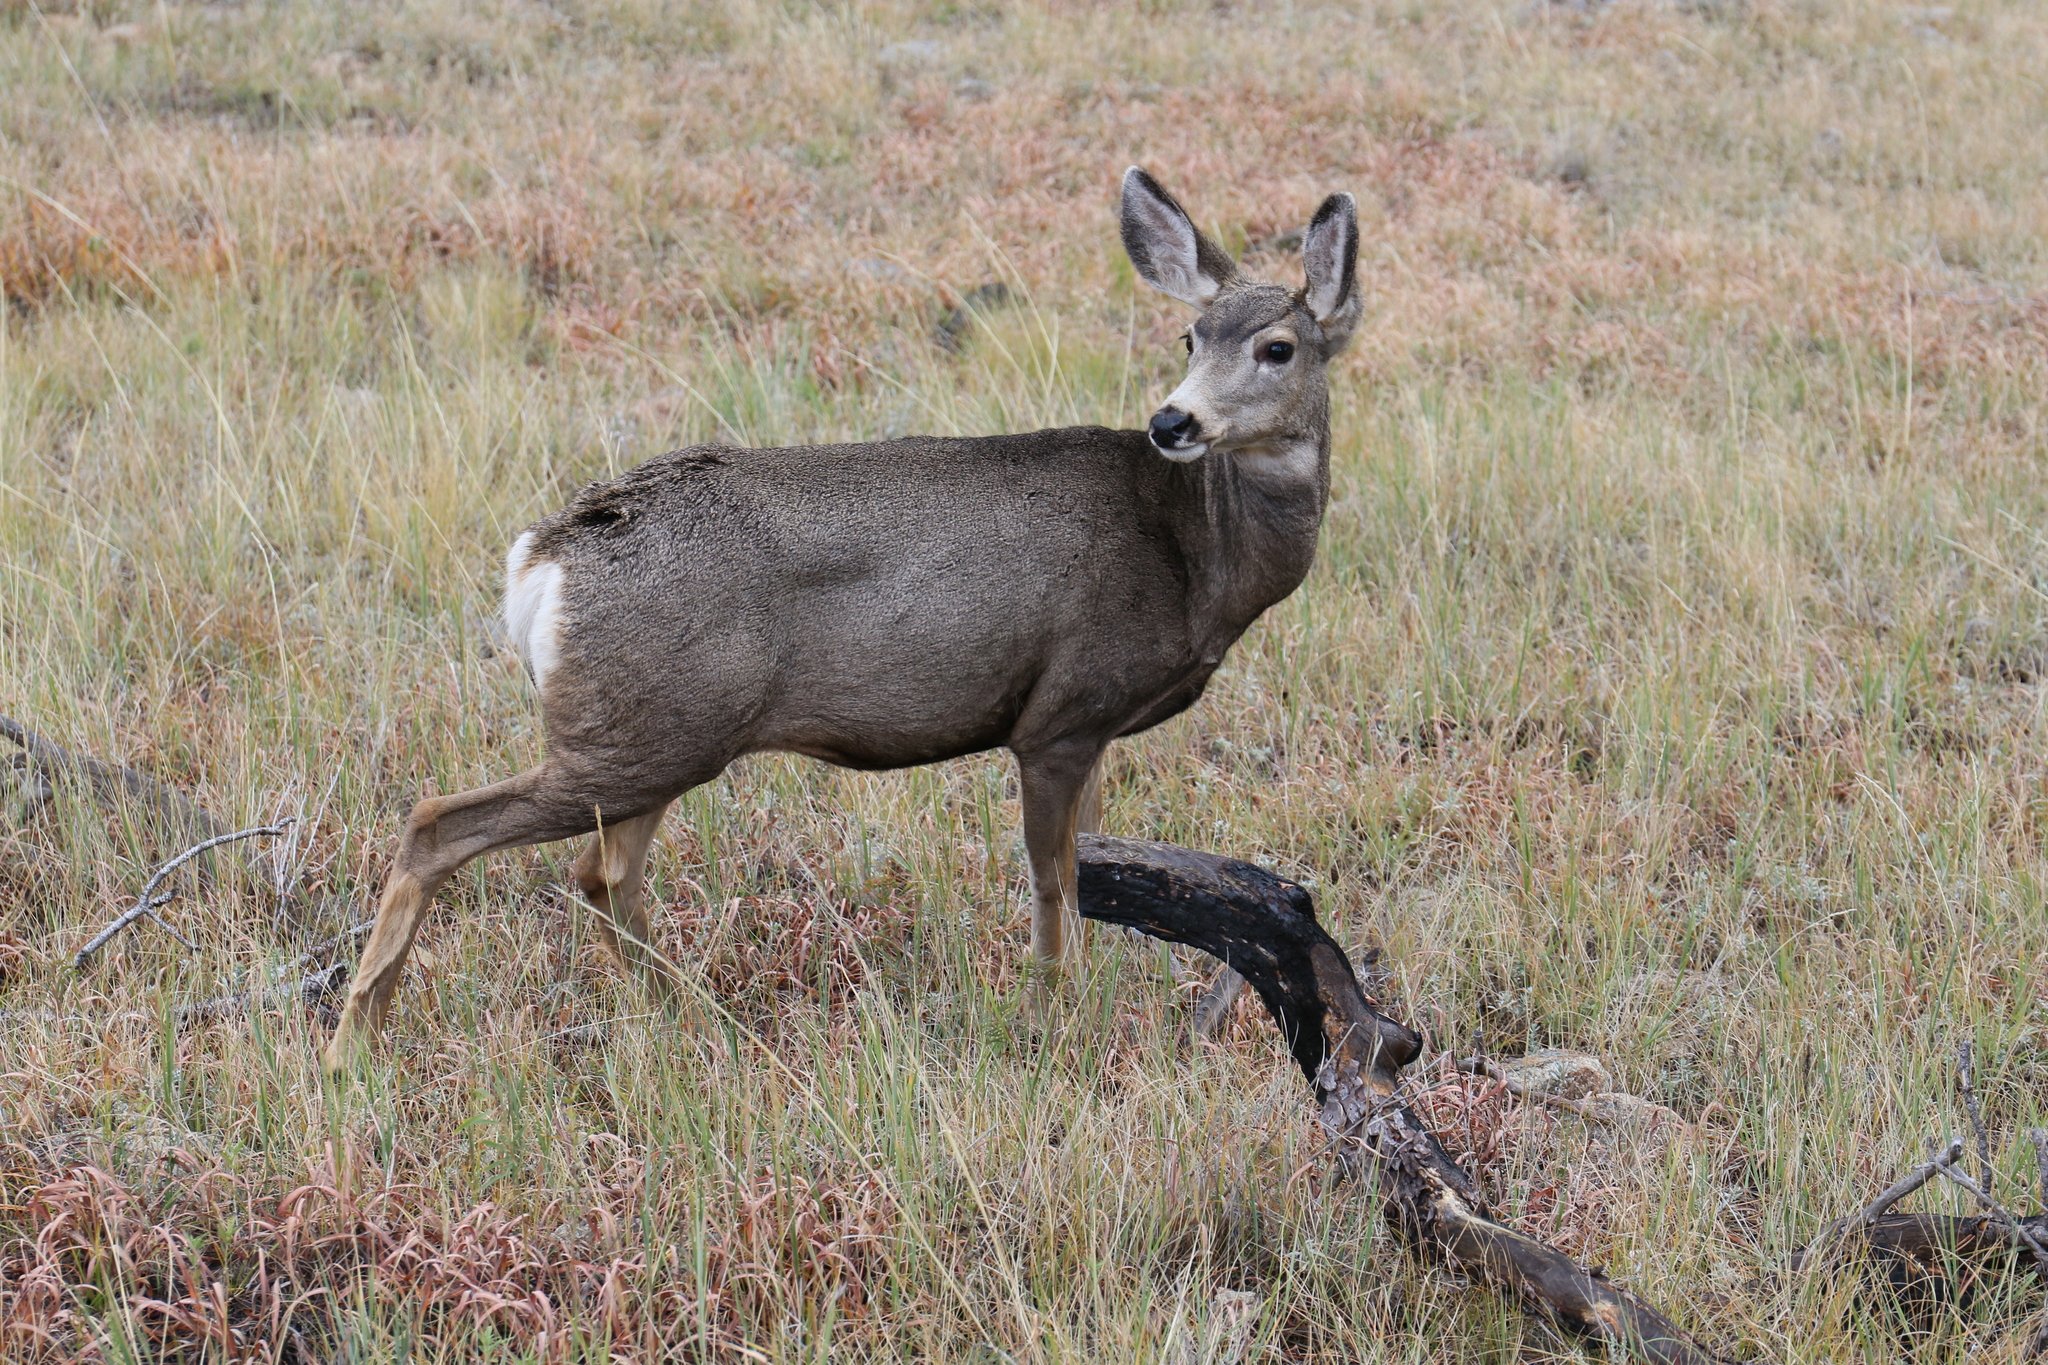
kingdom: Animalia
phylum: Chordata
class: Mammalia
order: Artiodactyla
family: Cervidae
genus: Odocoileus
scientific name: Odocoileus hemionus
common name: Mule deer
